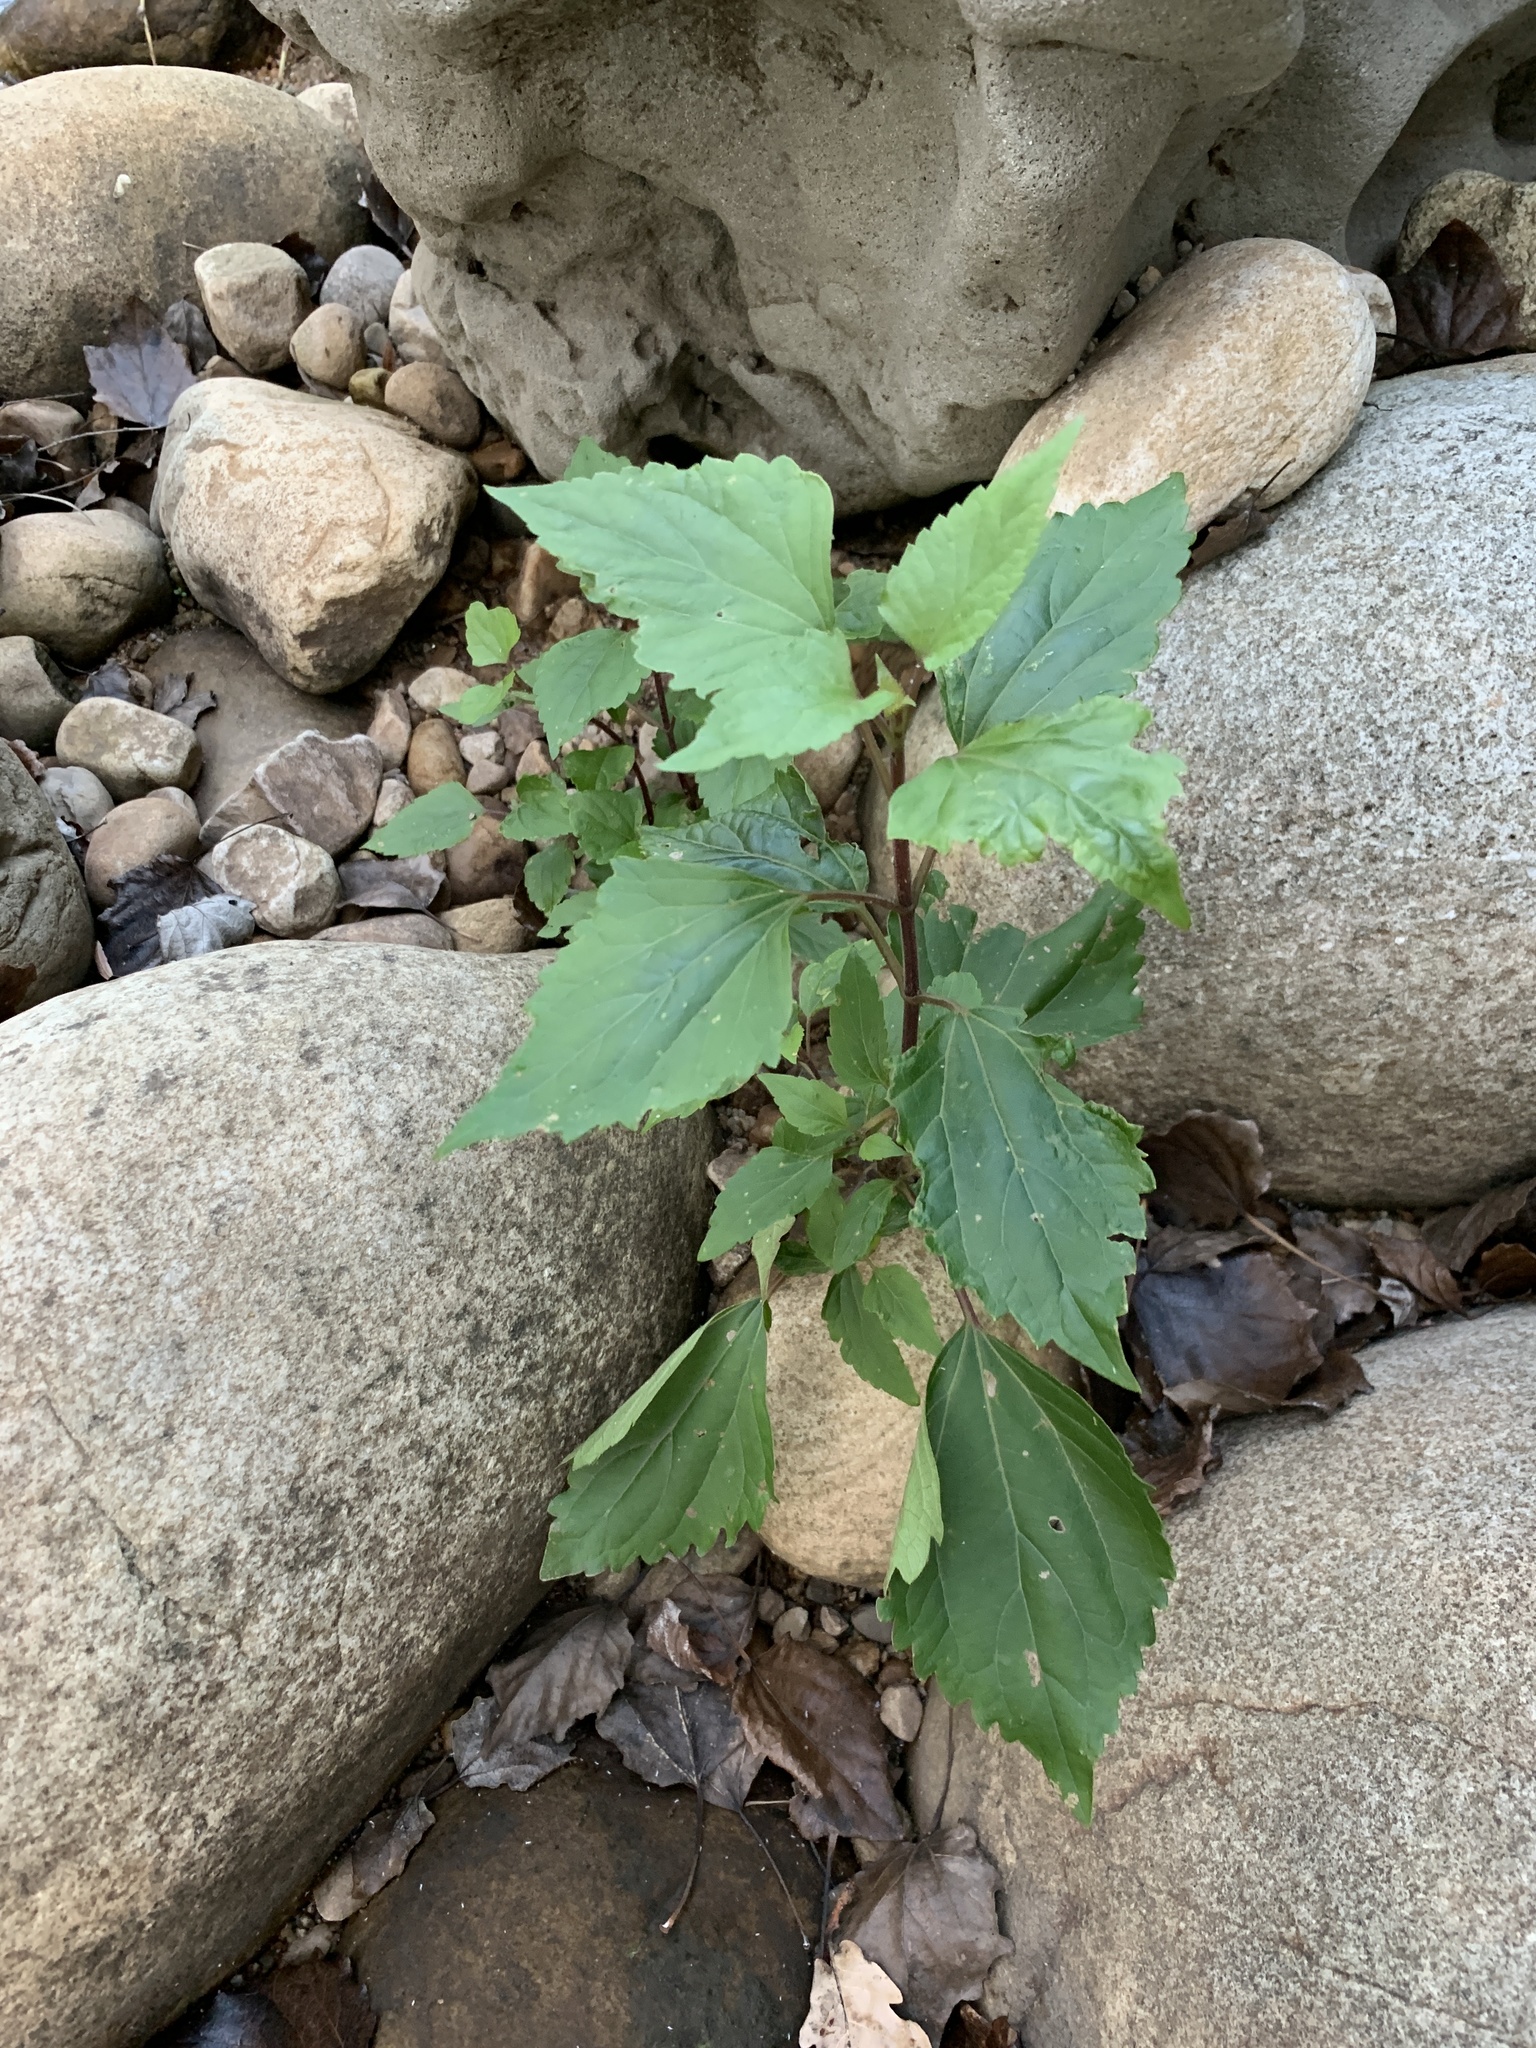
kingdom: Plantae
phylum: Tracheophyta
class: Magnoliopsida
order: Asterales
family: Asteraceae
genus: Ageratina
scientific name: Ageratina adenophora
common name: Sticky snakeroot
